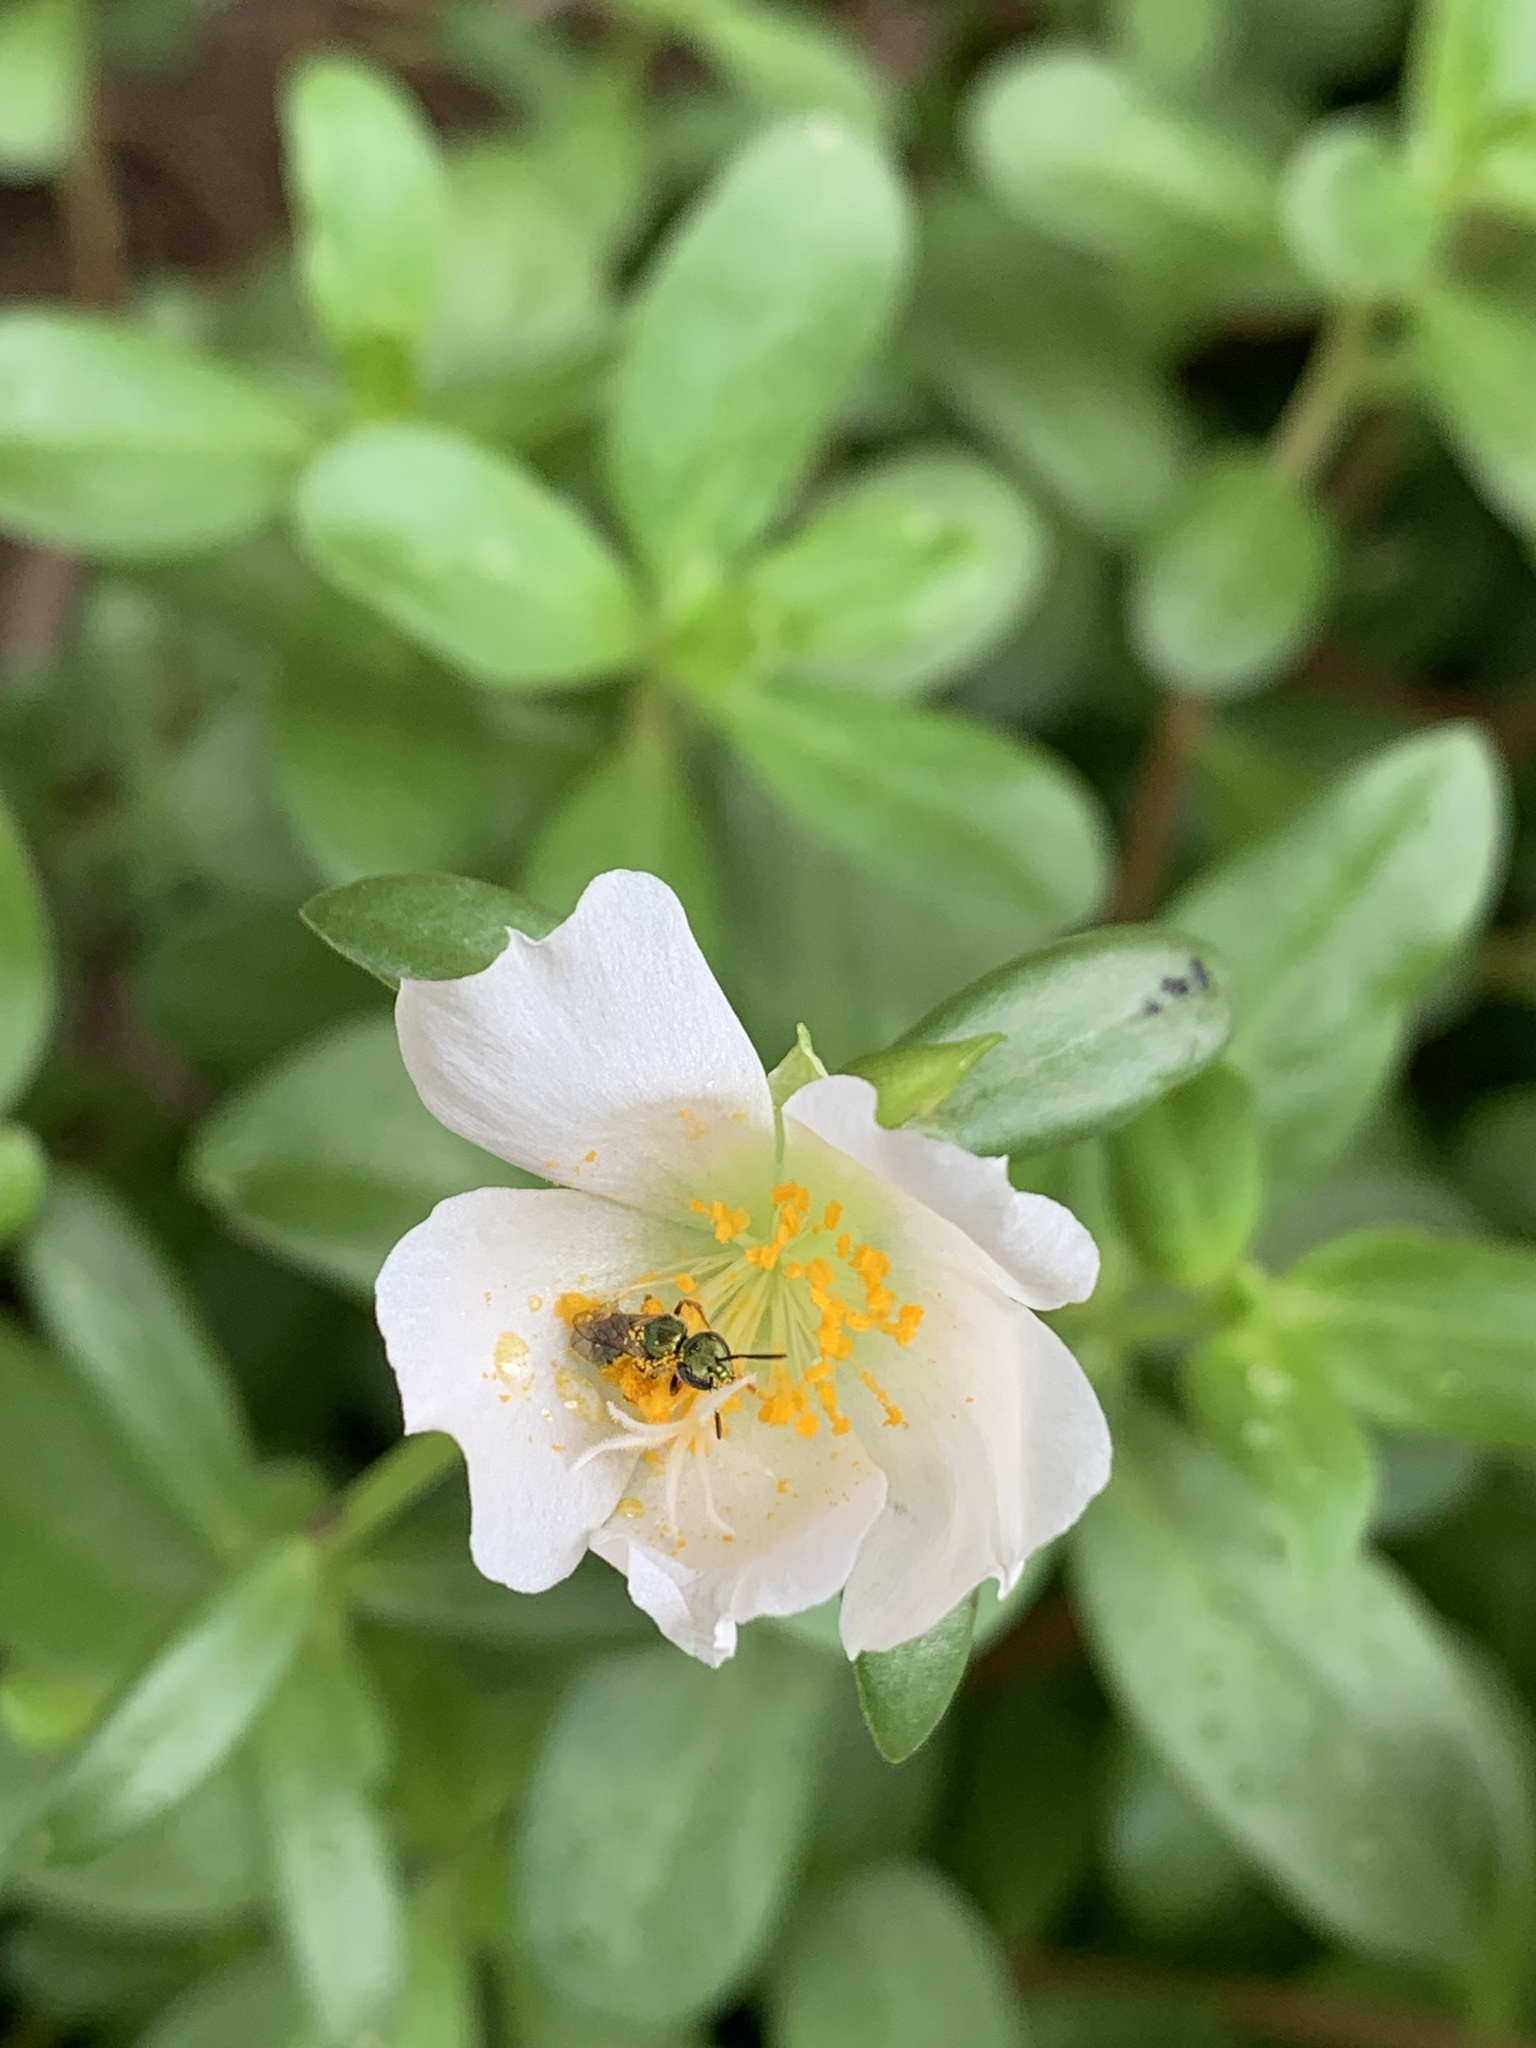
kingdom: Animalia
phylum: Arthropoda
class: Insecta
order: Hymenoptera
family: Halictidae
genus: Augochlora
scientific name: Augochlora aurifera
